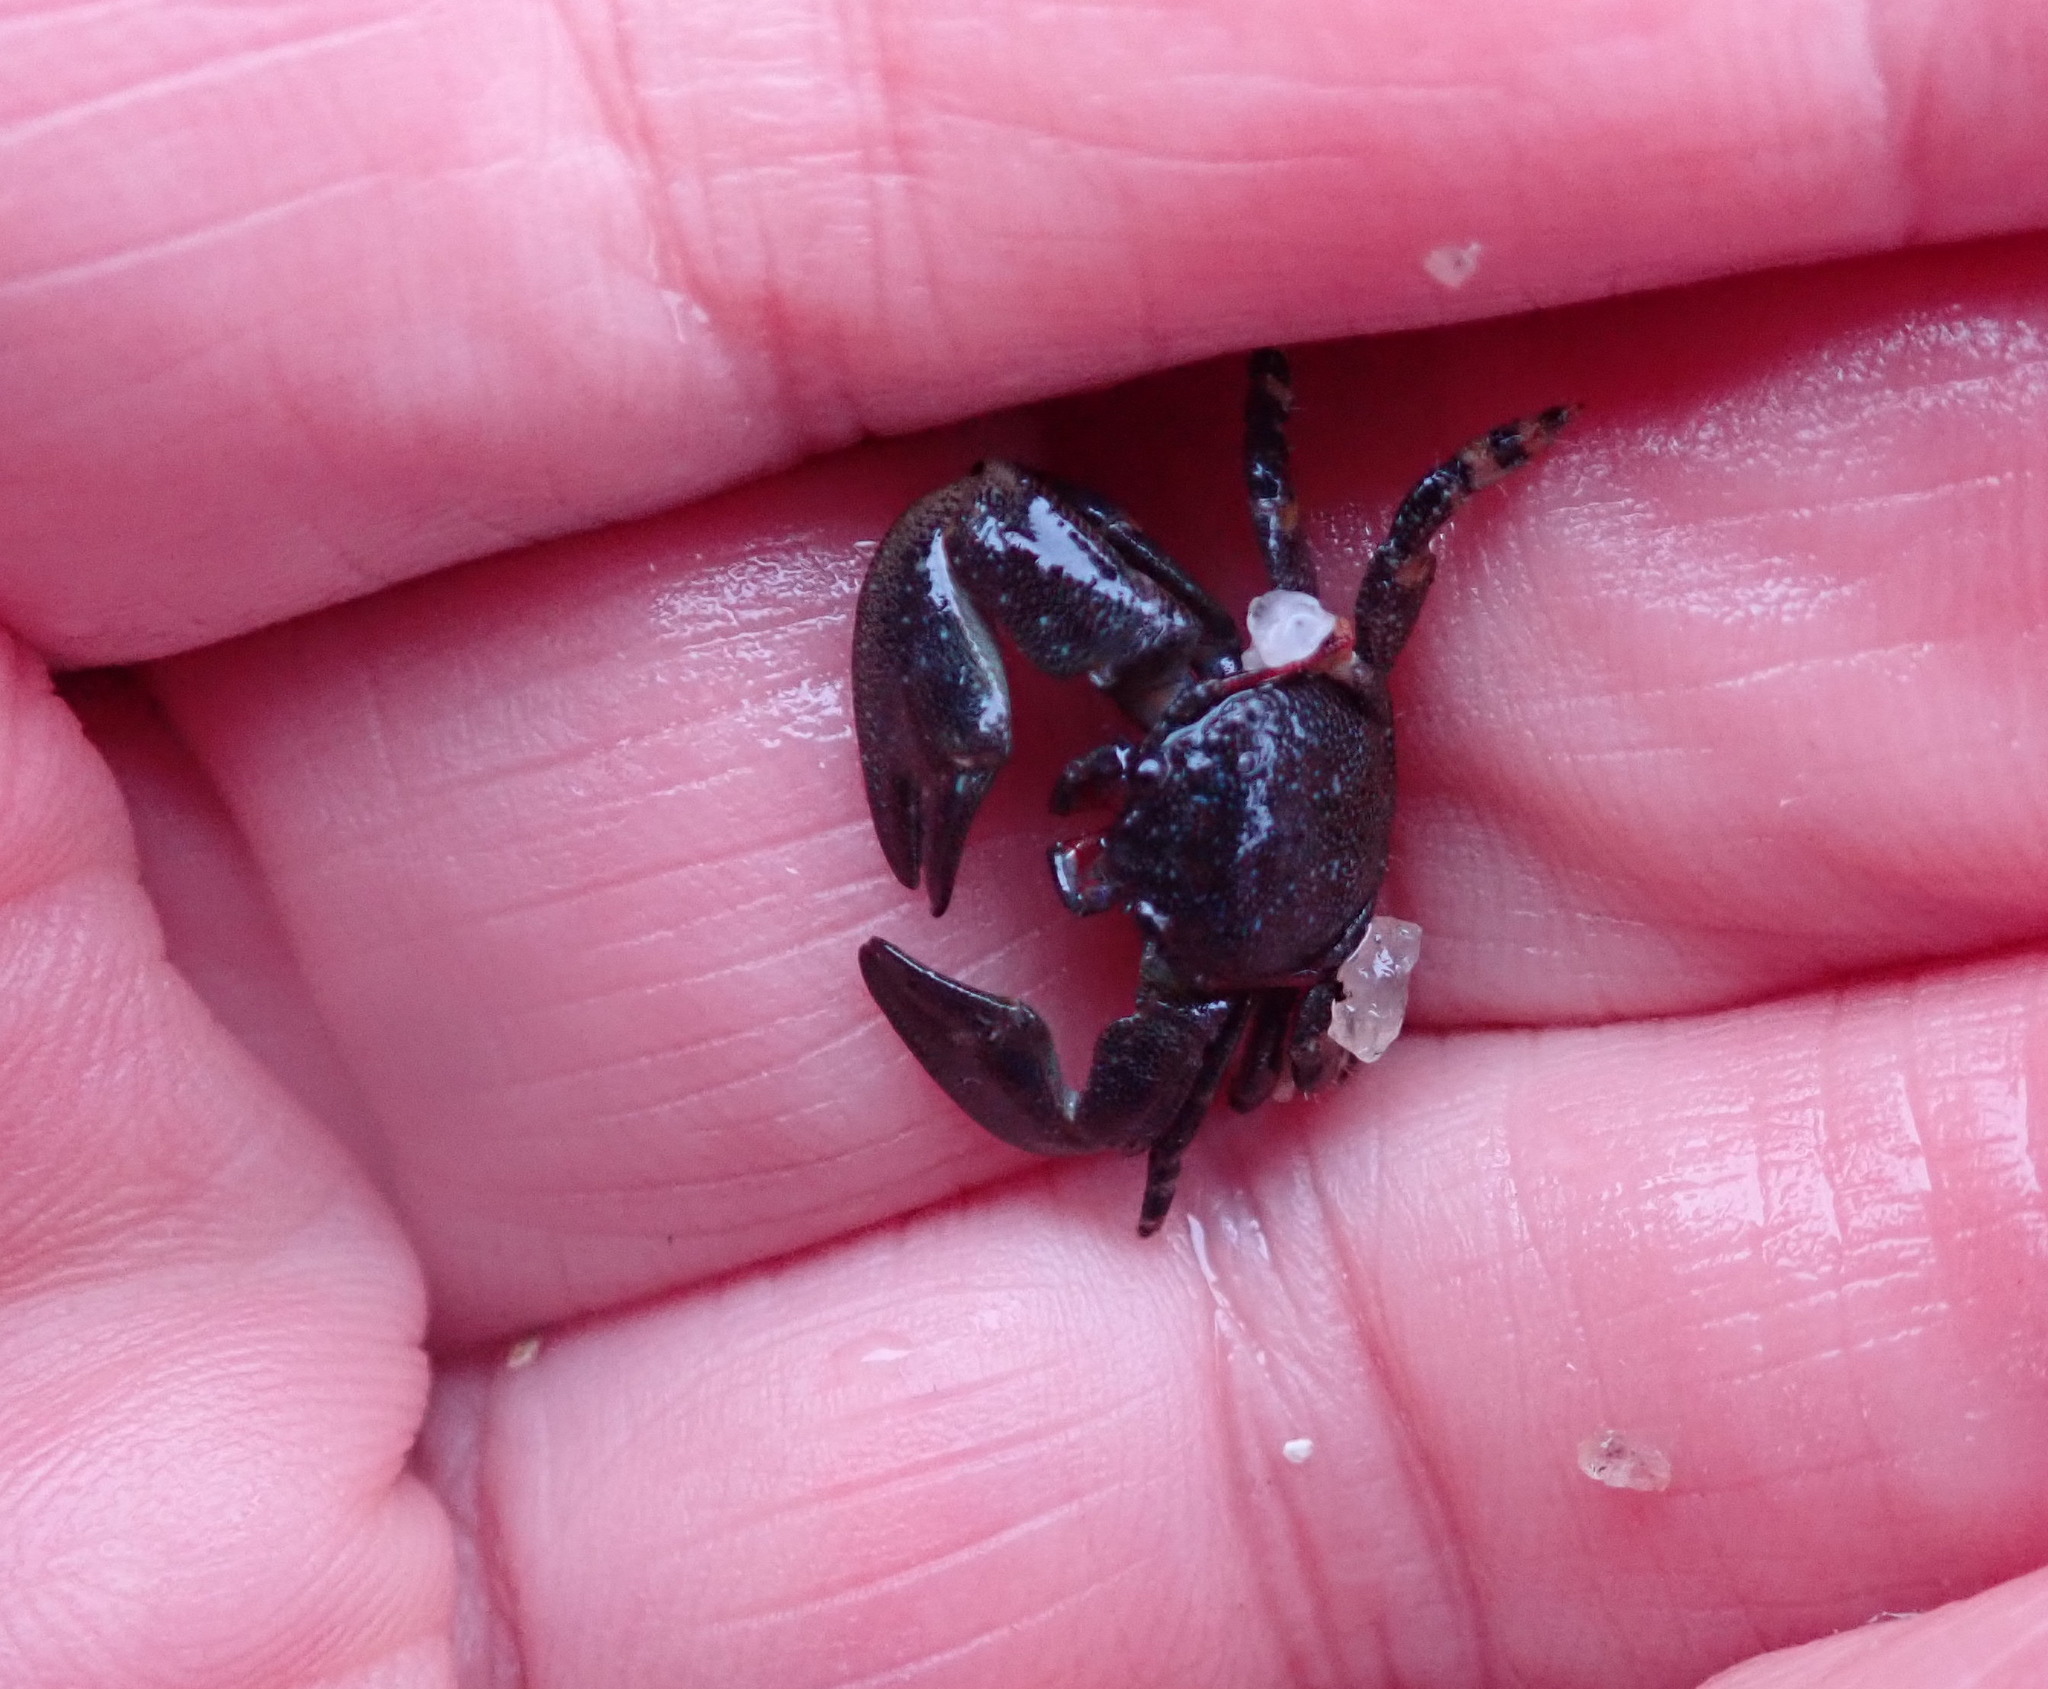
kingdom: Animalia
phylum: Arthropoda
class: Malacostraca
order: Decapoda
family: Porcellanidae
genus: Petrolisthes
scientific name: Petrolisthes cinctipes
